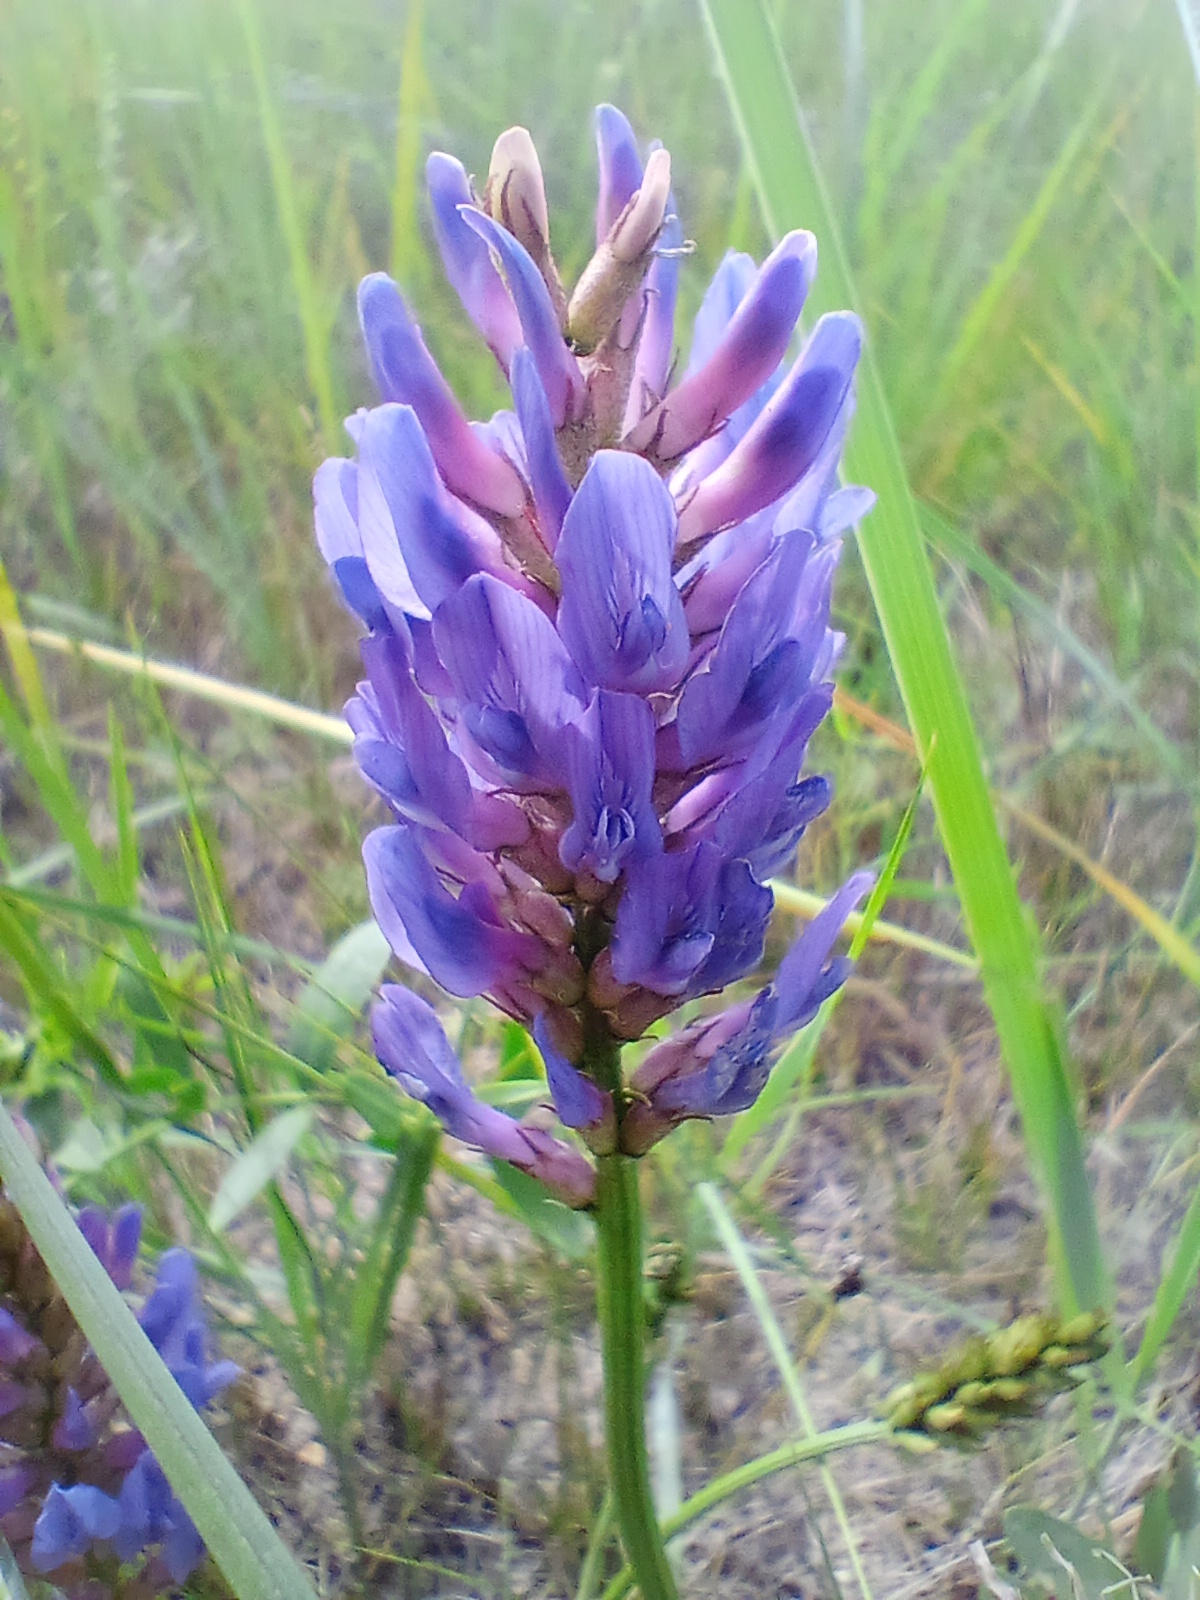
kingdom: Plantae
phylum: Tracheophyta
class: Magnoliopsida
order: Fabales
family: Fabaceae
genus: Astragalus
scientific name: Astragalus laxmannii
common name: Laxmann's milk-vetch
